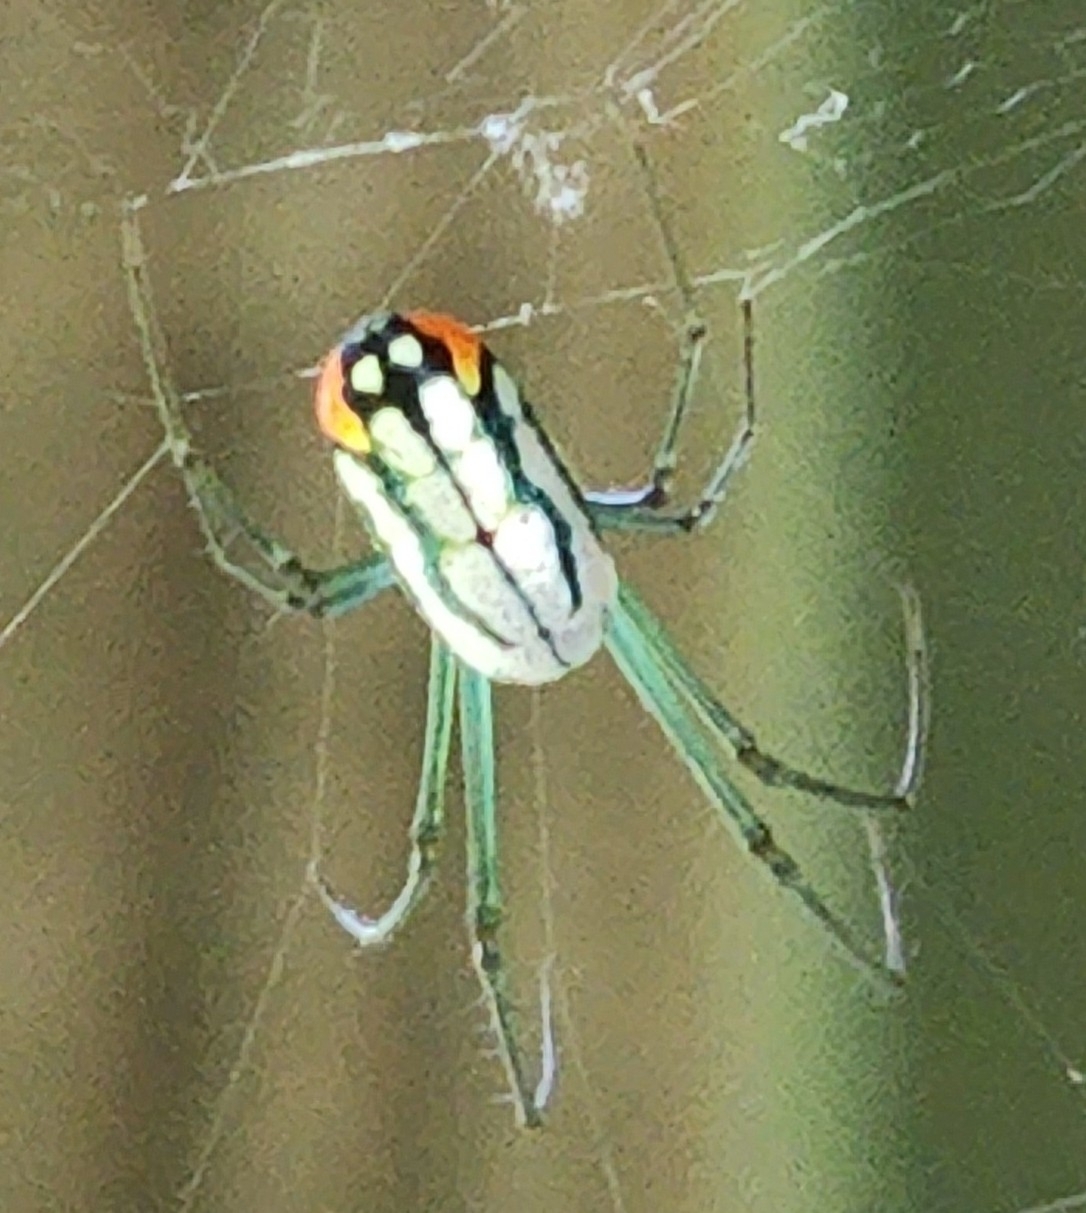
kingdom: Animalia
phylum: Arthropoda
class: Arachnida
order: Araneae
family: Tetragnathidae
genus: Leucauge
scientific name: Leucauge argyrobapta
